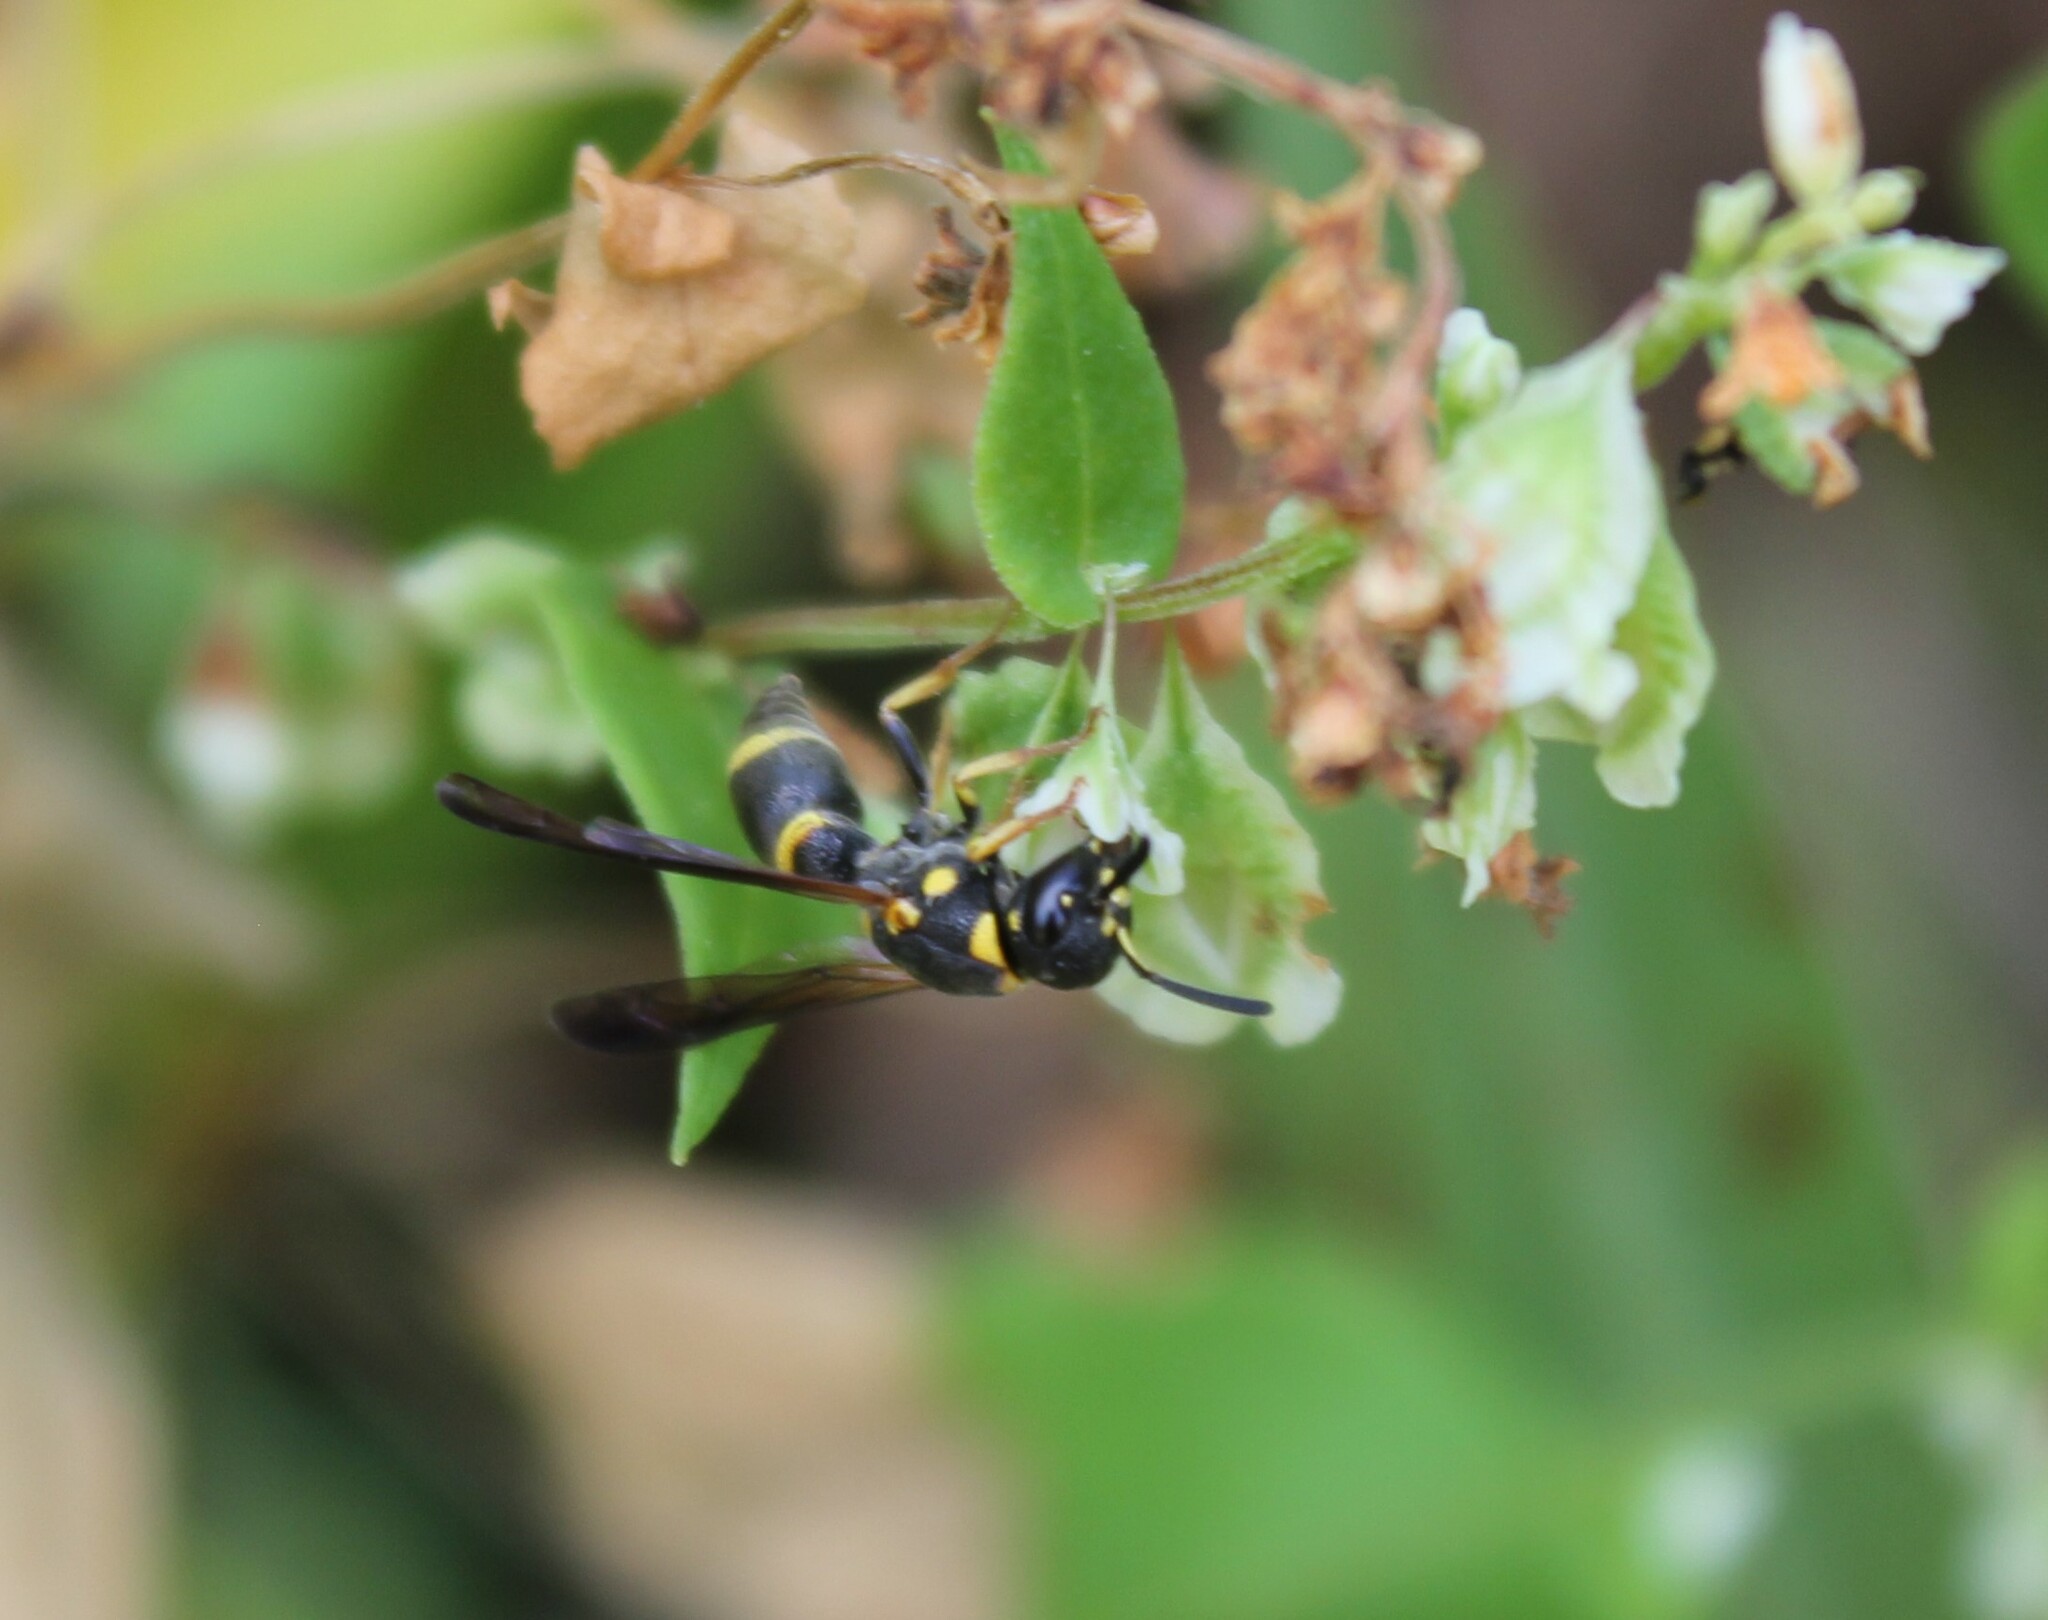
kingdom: Animalia
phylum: Arthropoda
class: Insecta
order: Hymenoptera
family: Eumenidae
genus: Parancistrocerus
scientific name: Parancistrocerus perennis
